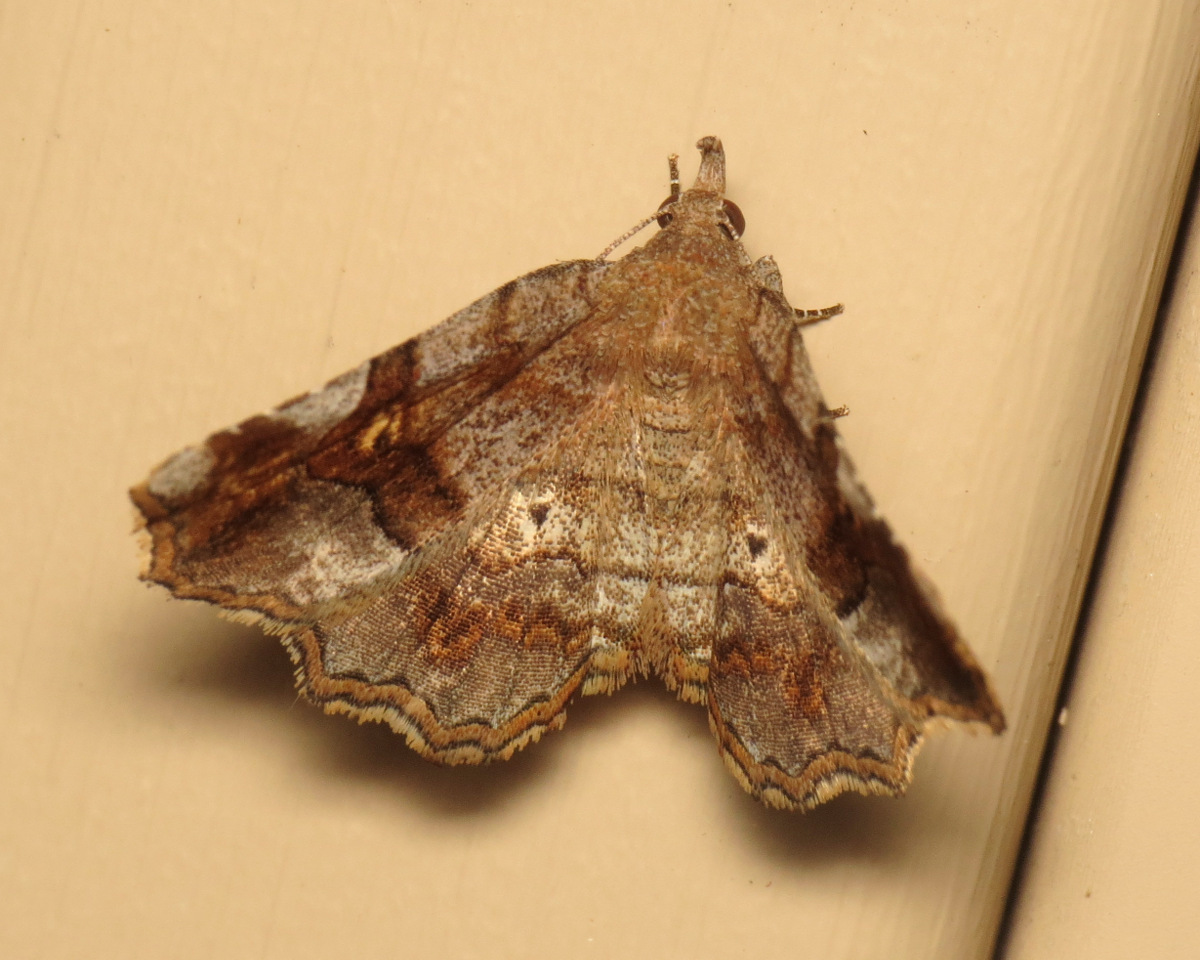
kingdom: Animalia
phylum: Arthropoda
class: Insecta
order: Lepidoptera
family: Erebidae
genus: Pangrapta
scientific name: Pangrapta decoralis
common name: Decorated owlet
